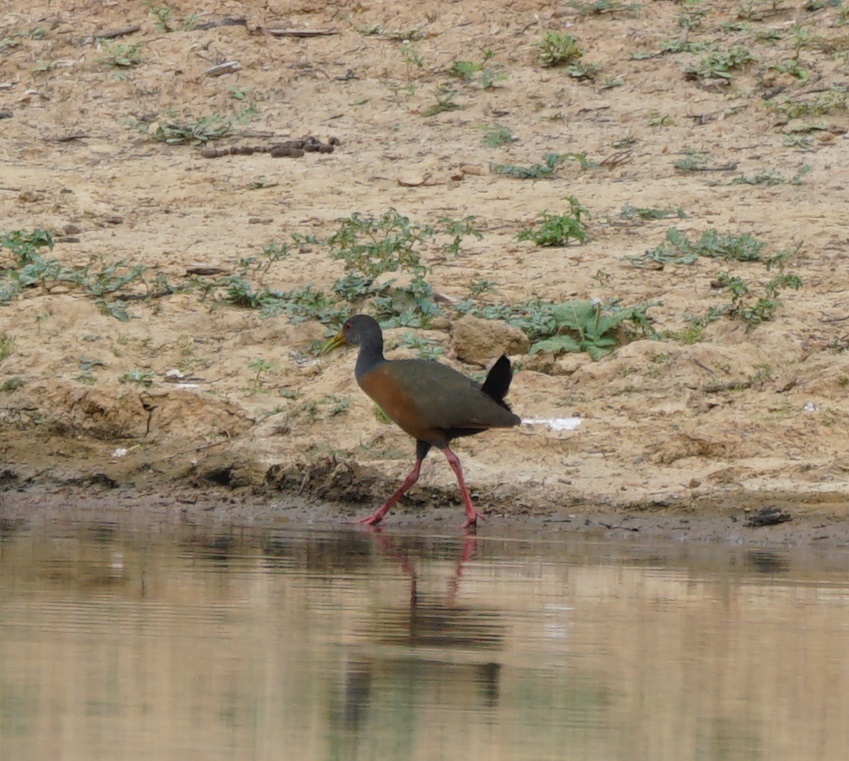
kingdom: Animalia
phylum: Chordata
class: Aves
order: Gruiformes
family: Rallidae
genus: Aramides
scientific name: Aramides cajanea
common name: Gray-necked wood-rail
